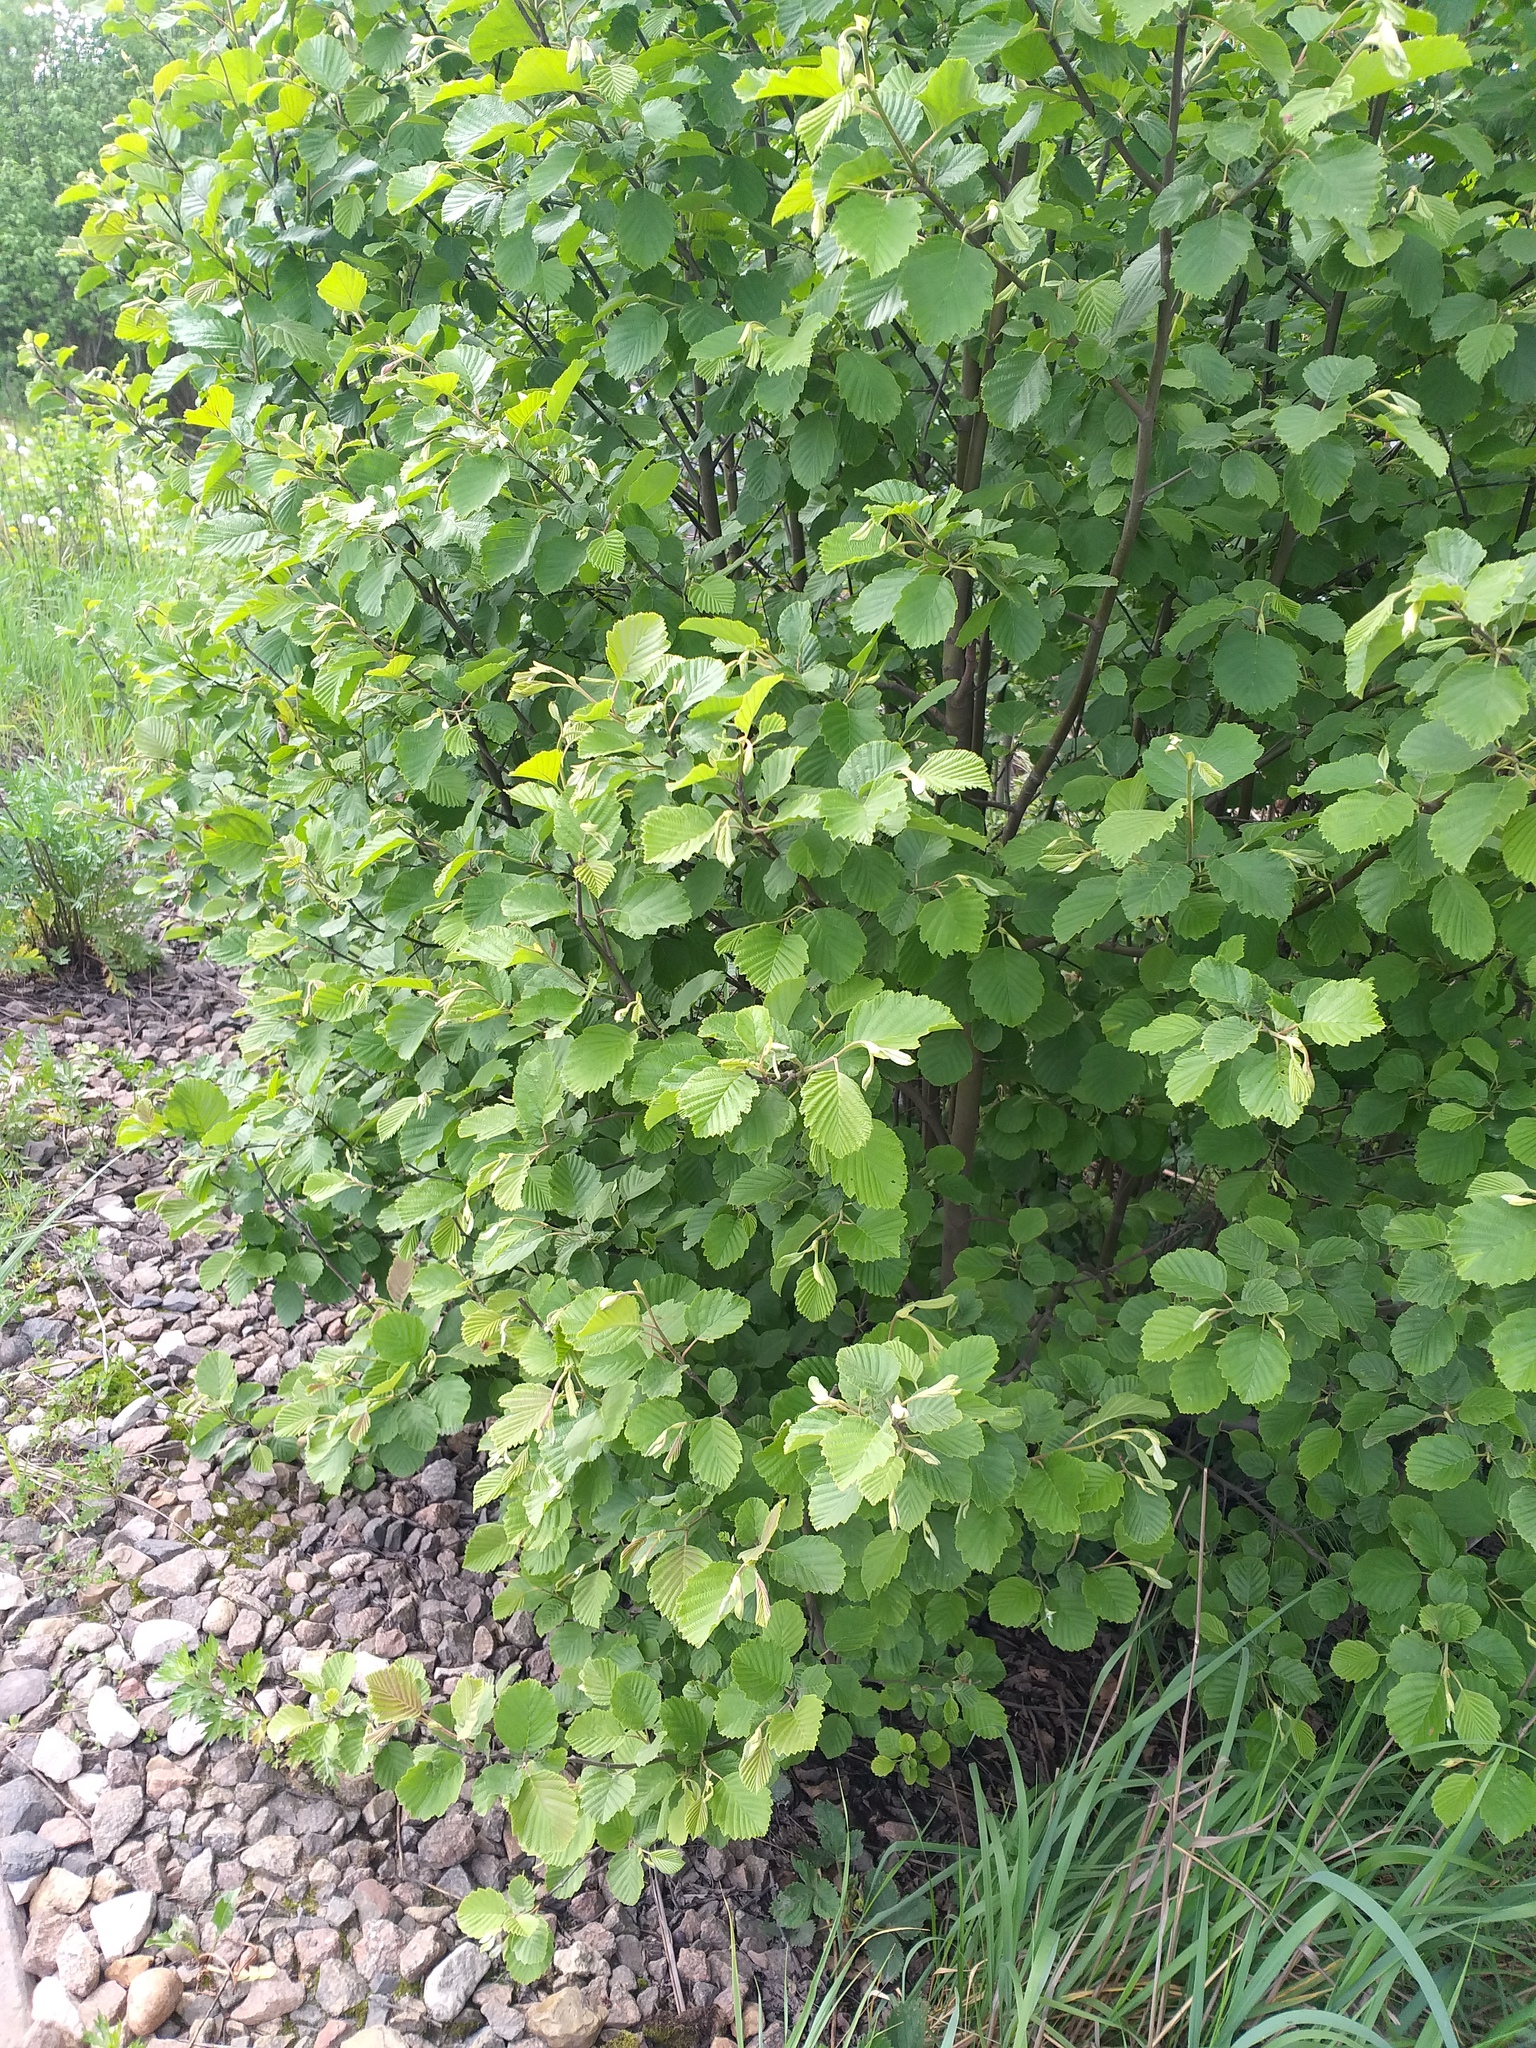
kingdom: Plantae
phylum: Tracheophyta
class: Magnoliopsida
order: Fagales
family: Betulaceae
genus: Alnus
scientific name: Alnus incana
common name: Grey alder
